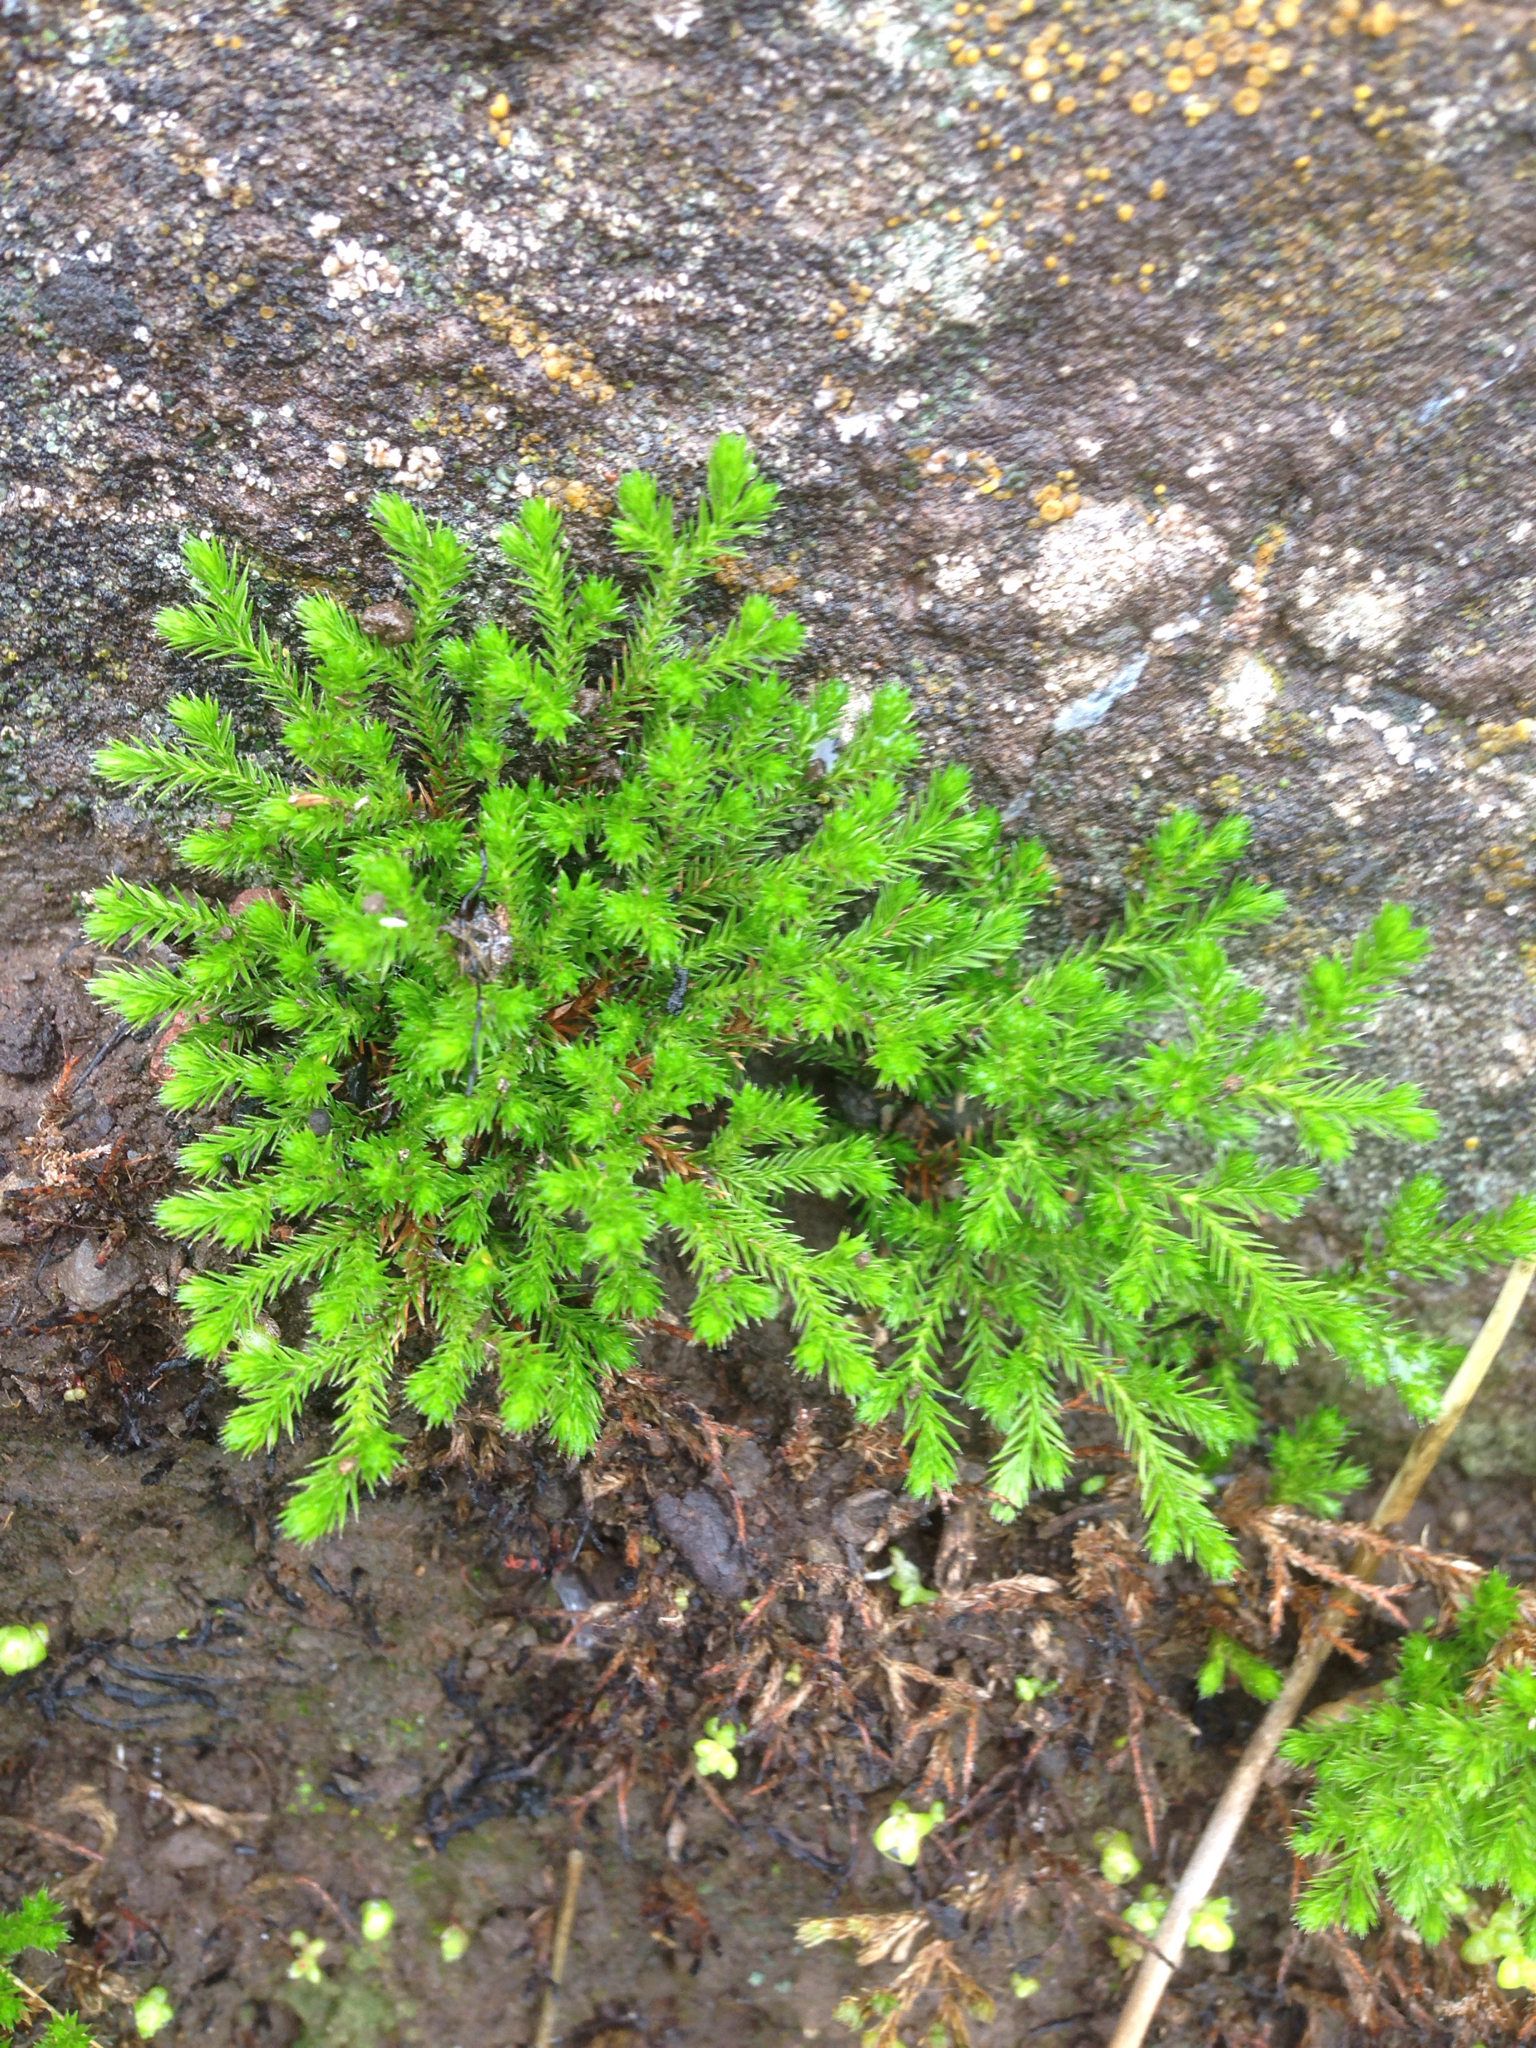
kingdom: Plantae
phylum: Tracheophyta
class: Lycopodiopsida
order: Selaginellales
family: Selaginellaceae
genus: Selaginella
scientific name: Selaginella bigelovii
